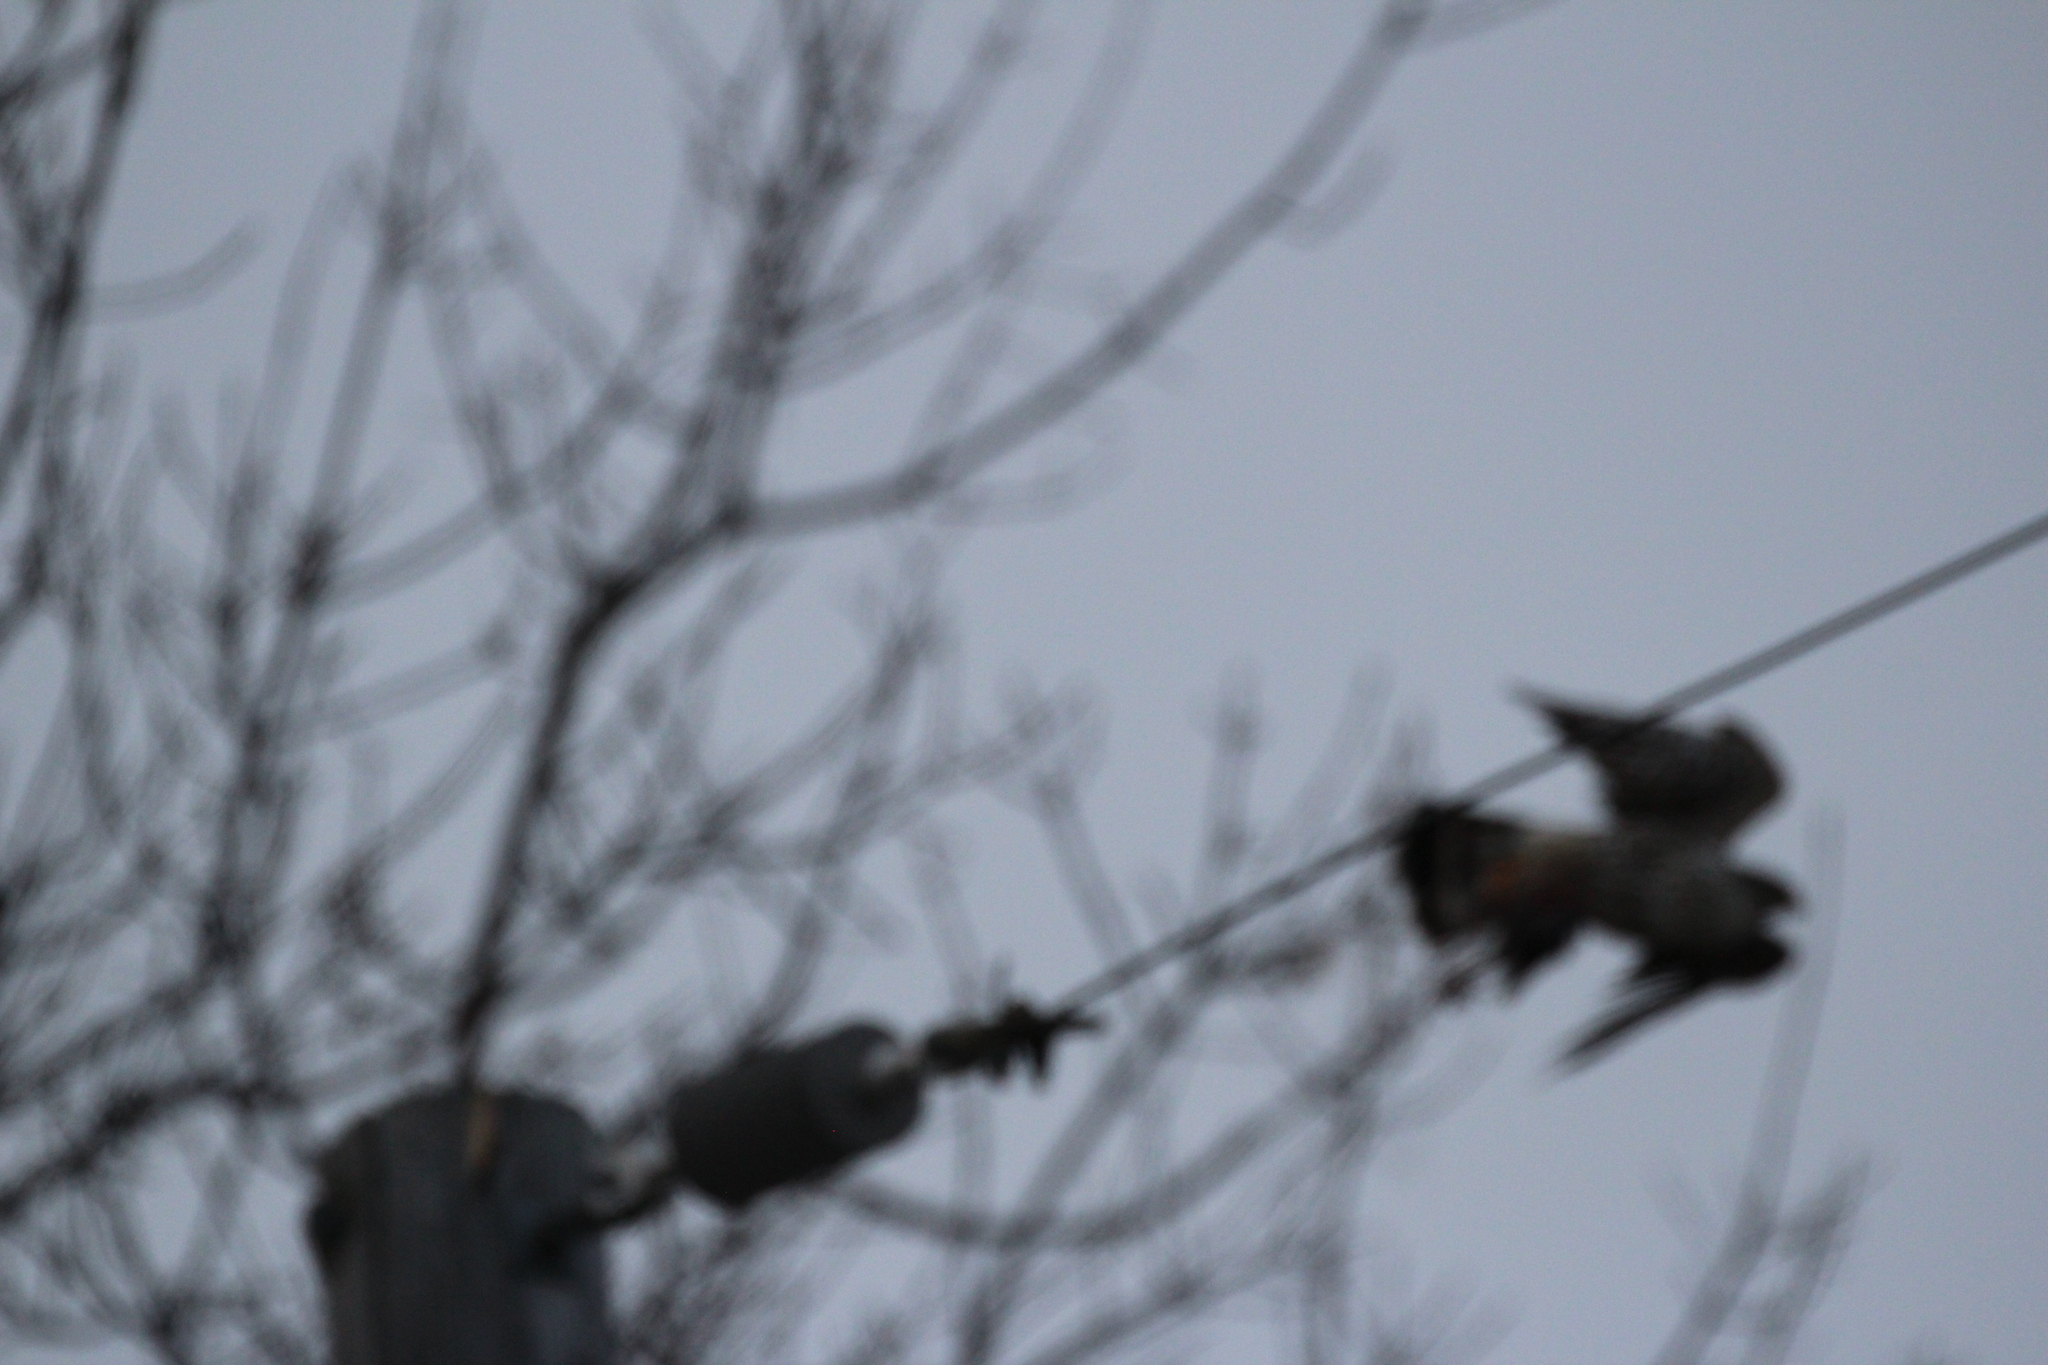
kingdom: Animalia
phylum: Chordata
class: Aves
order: Falconiformes
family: Falconidae
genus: Falco
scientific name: Falco columbarius
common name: Merlin
